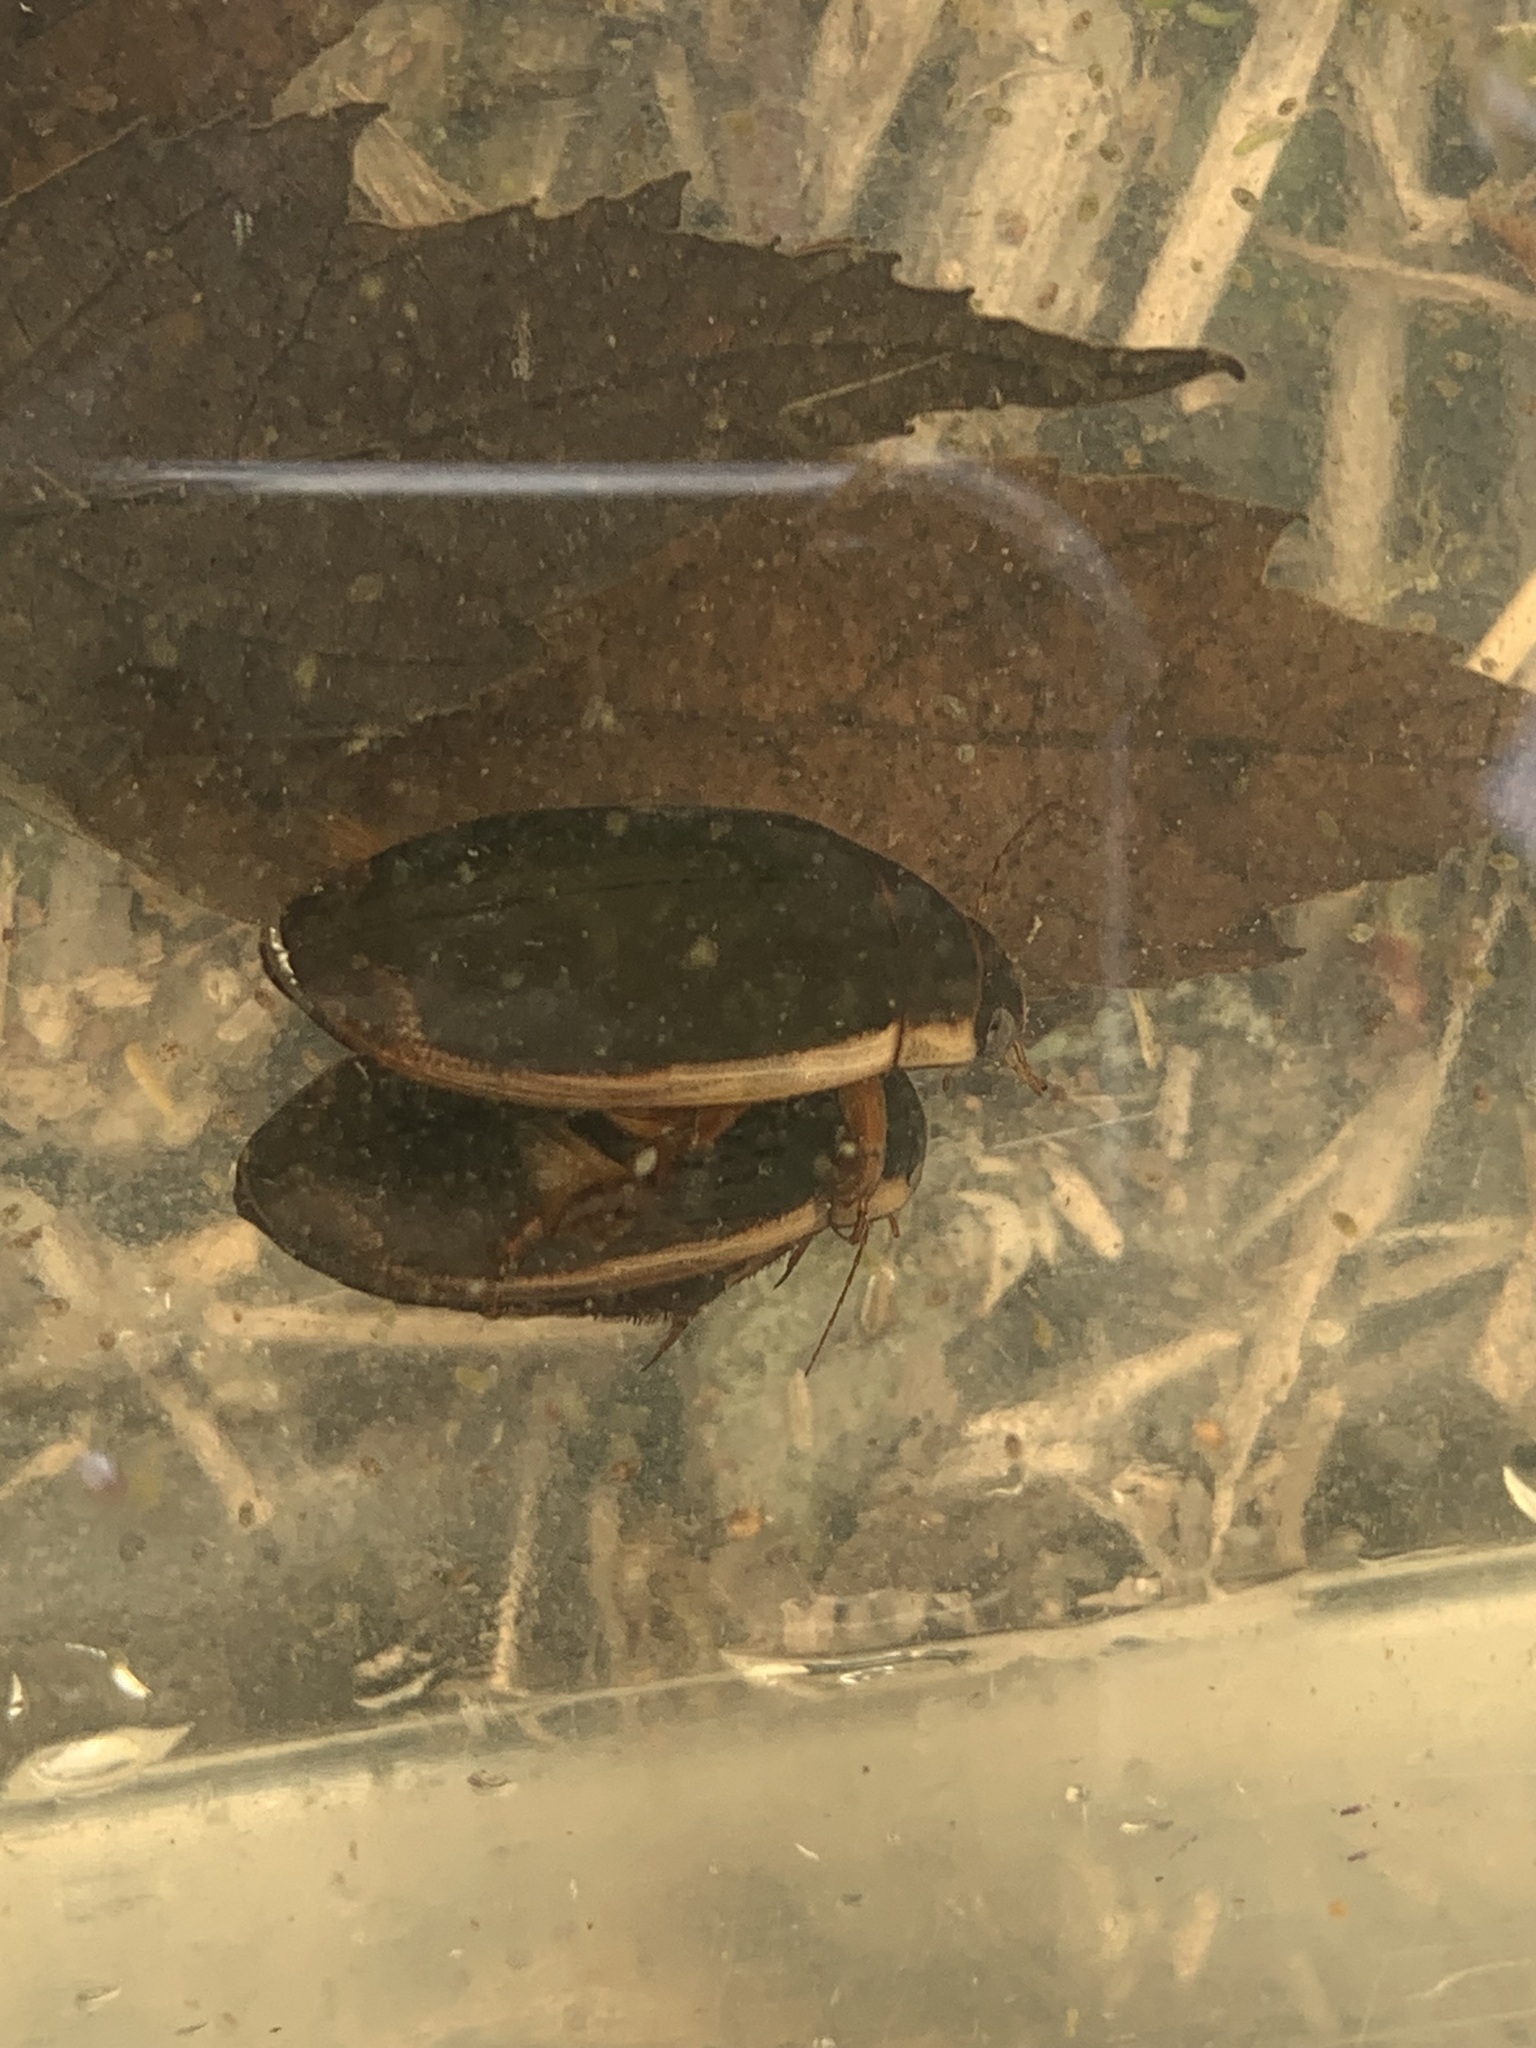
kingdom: Animalia
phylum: Arthropoda
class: Insecta
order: Coleoptera
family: Dytiscidae
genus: Dytiscus
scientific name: Dytiscus
